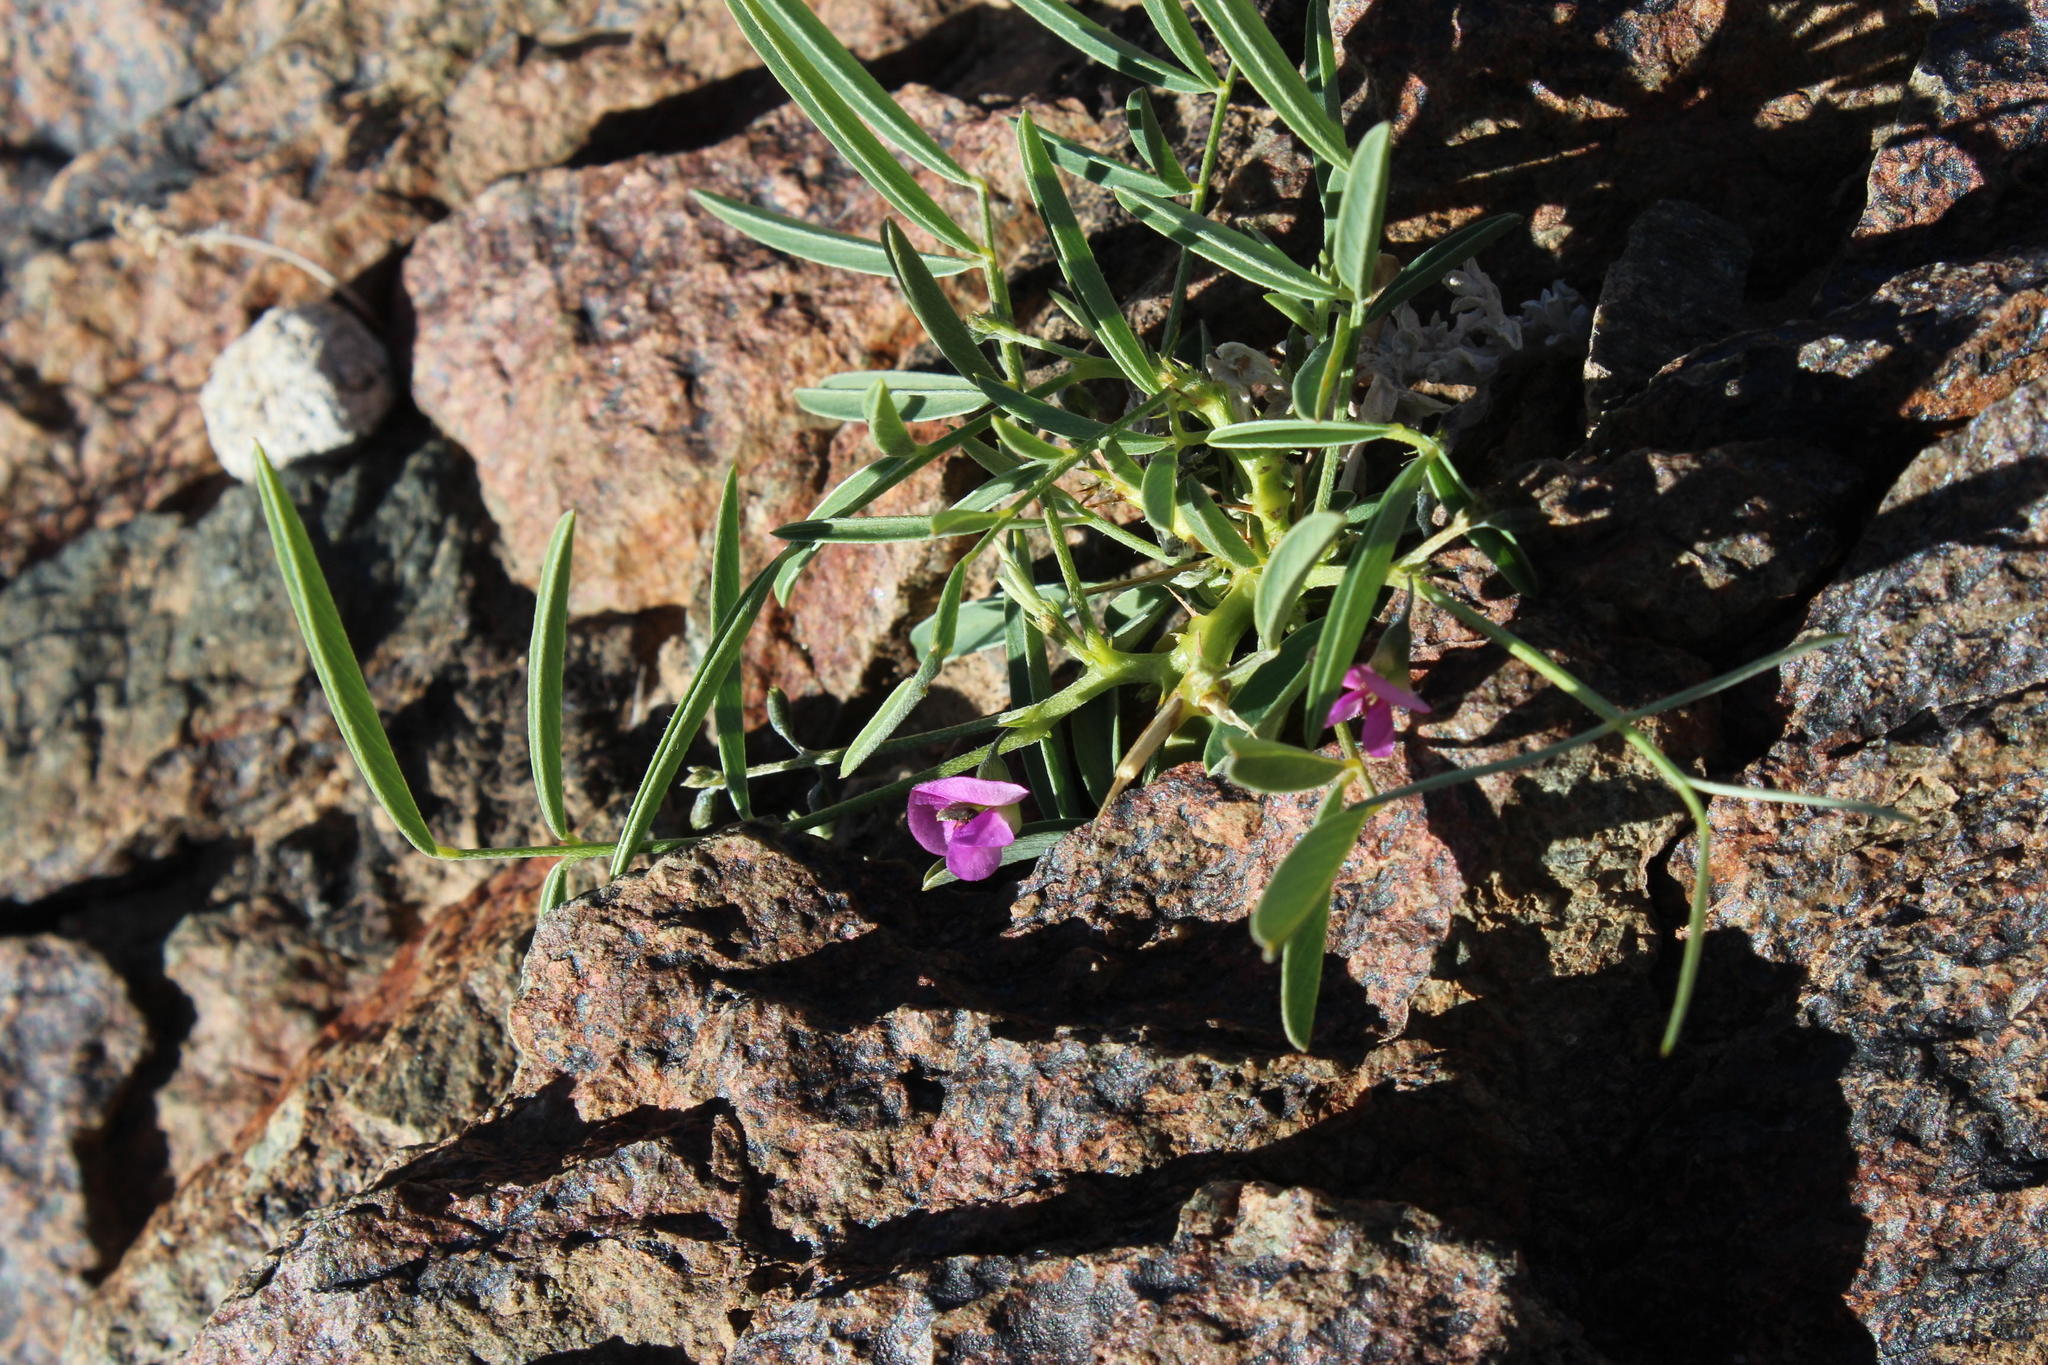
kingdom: Plantae
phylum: Tracheophyta
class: Magnoliopsida
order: Fabales
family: Fabaceae
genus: Tephrosia
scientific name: Tephrosia dregeana
